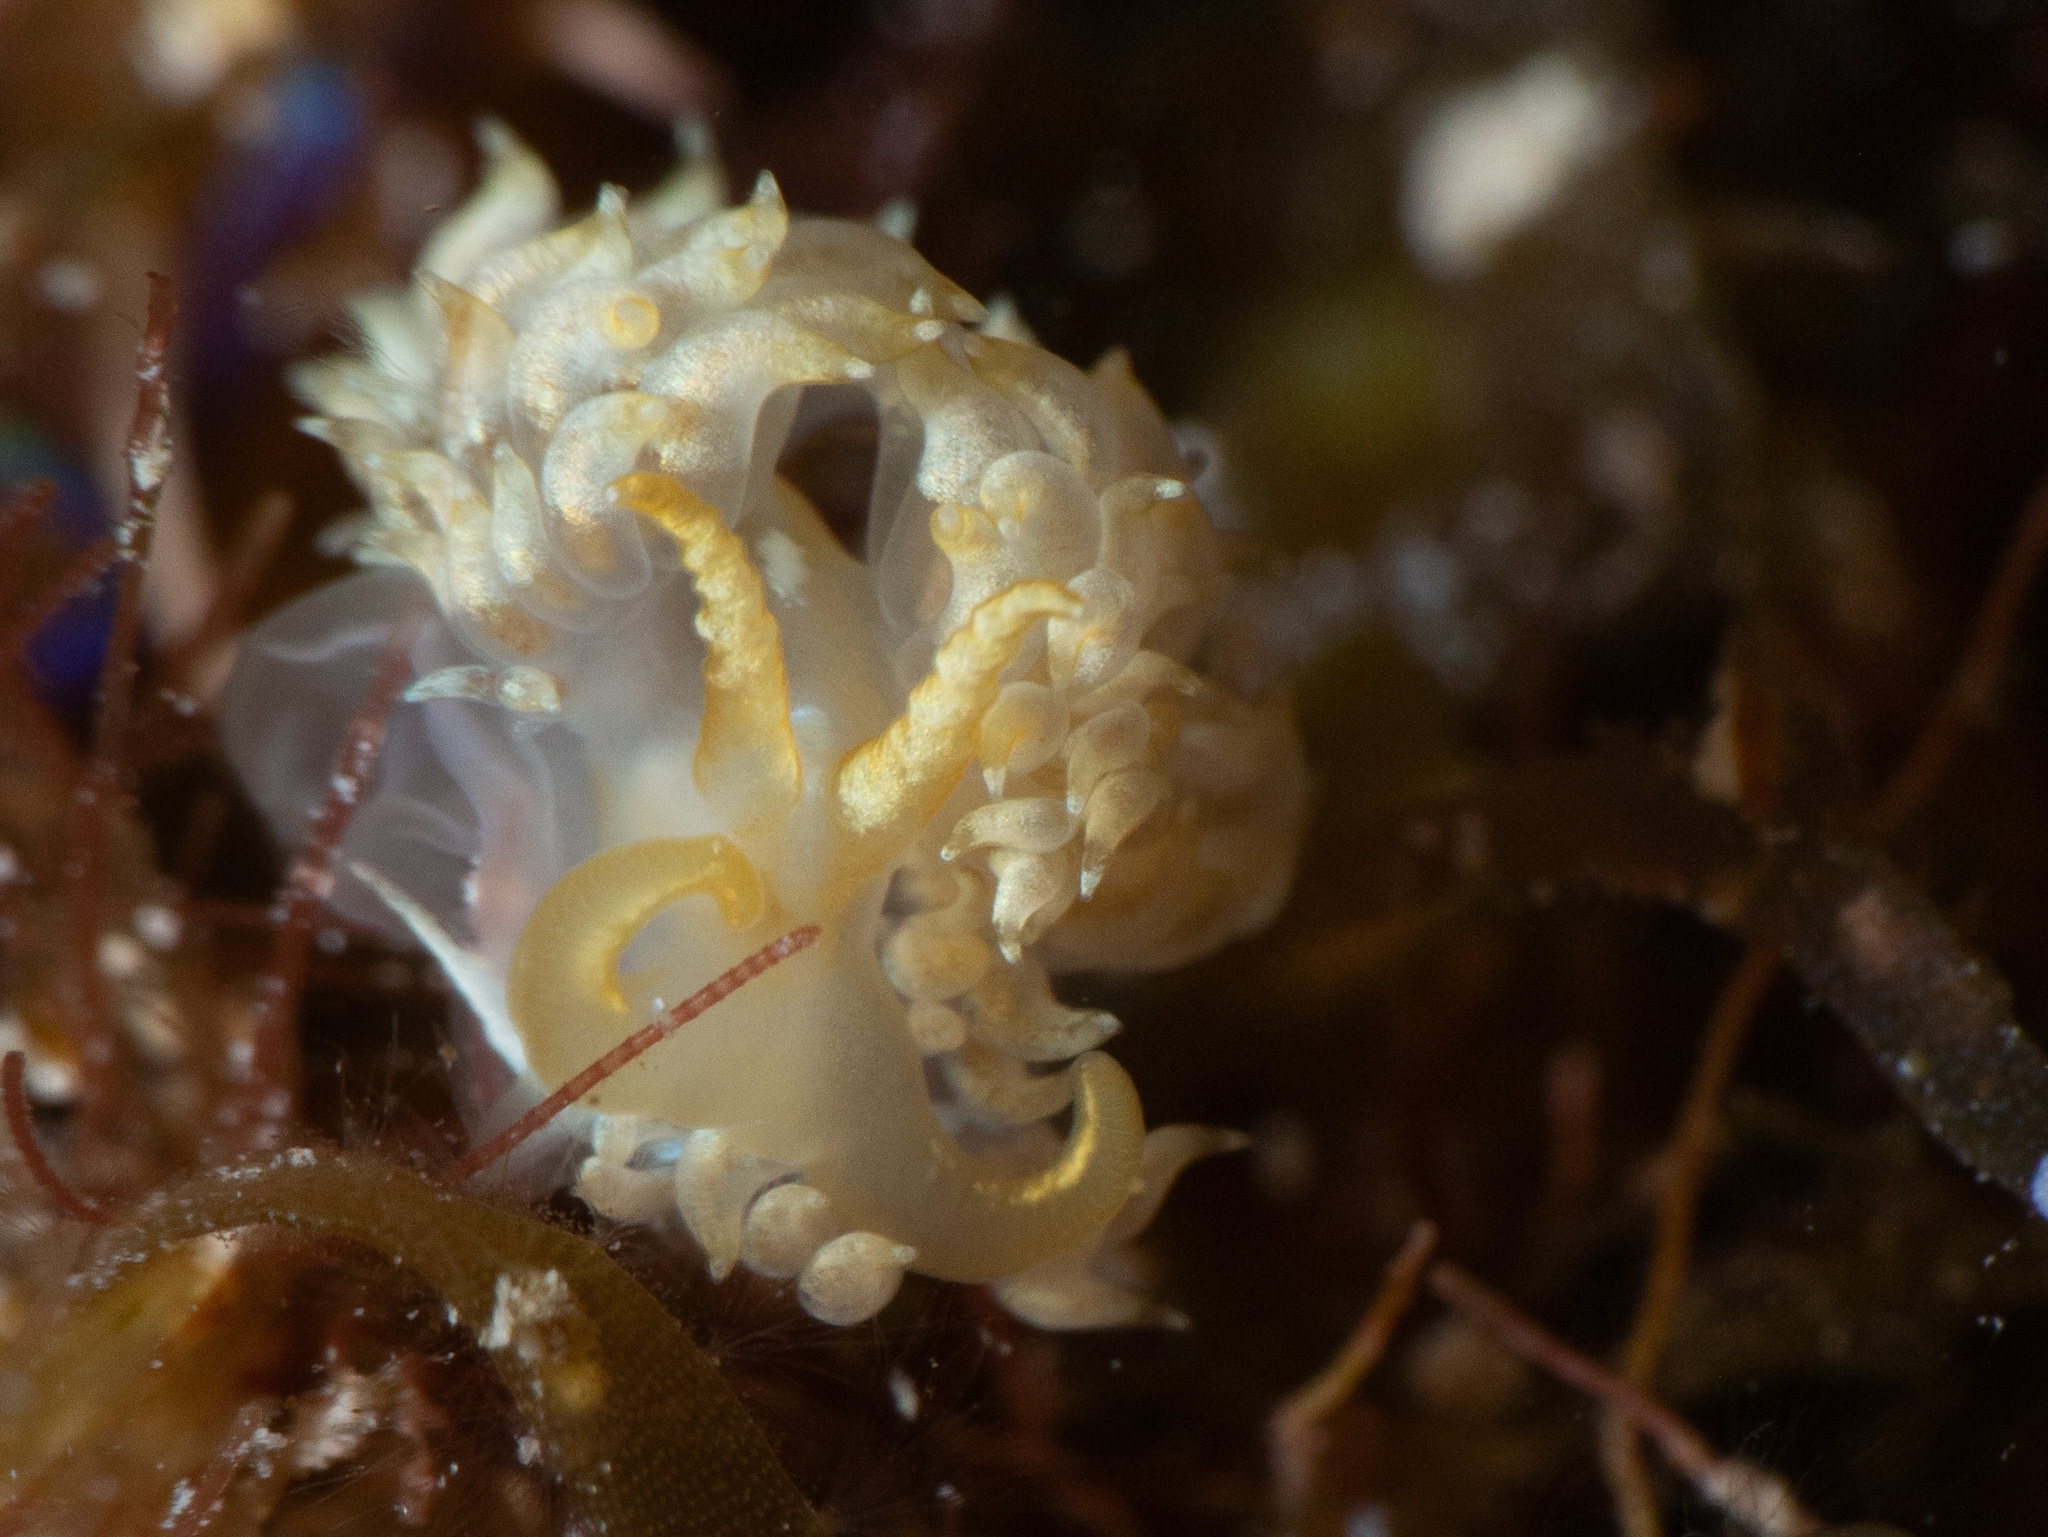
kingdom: Animalia
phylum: Mollusca
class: Gastropoda
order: Nudibranchia
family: Facelinidae
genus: Pauleo
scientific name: Pauleo jubatus
